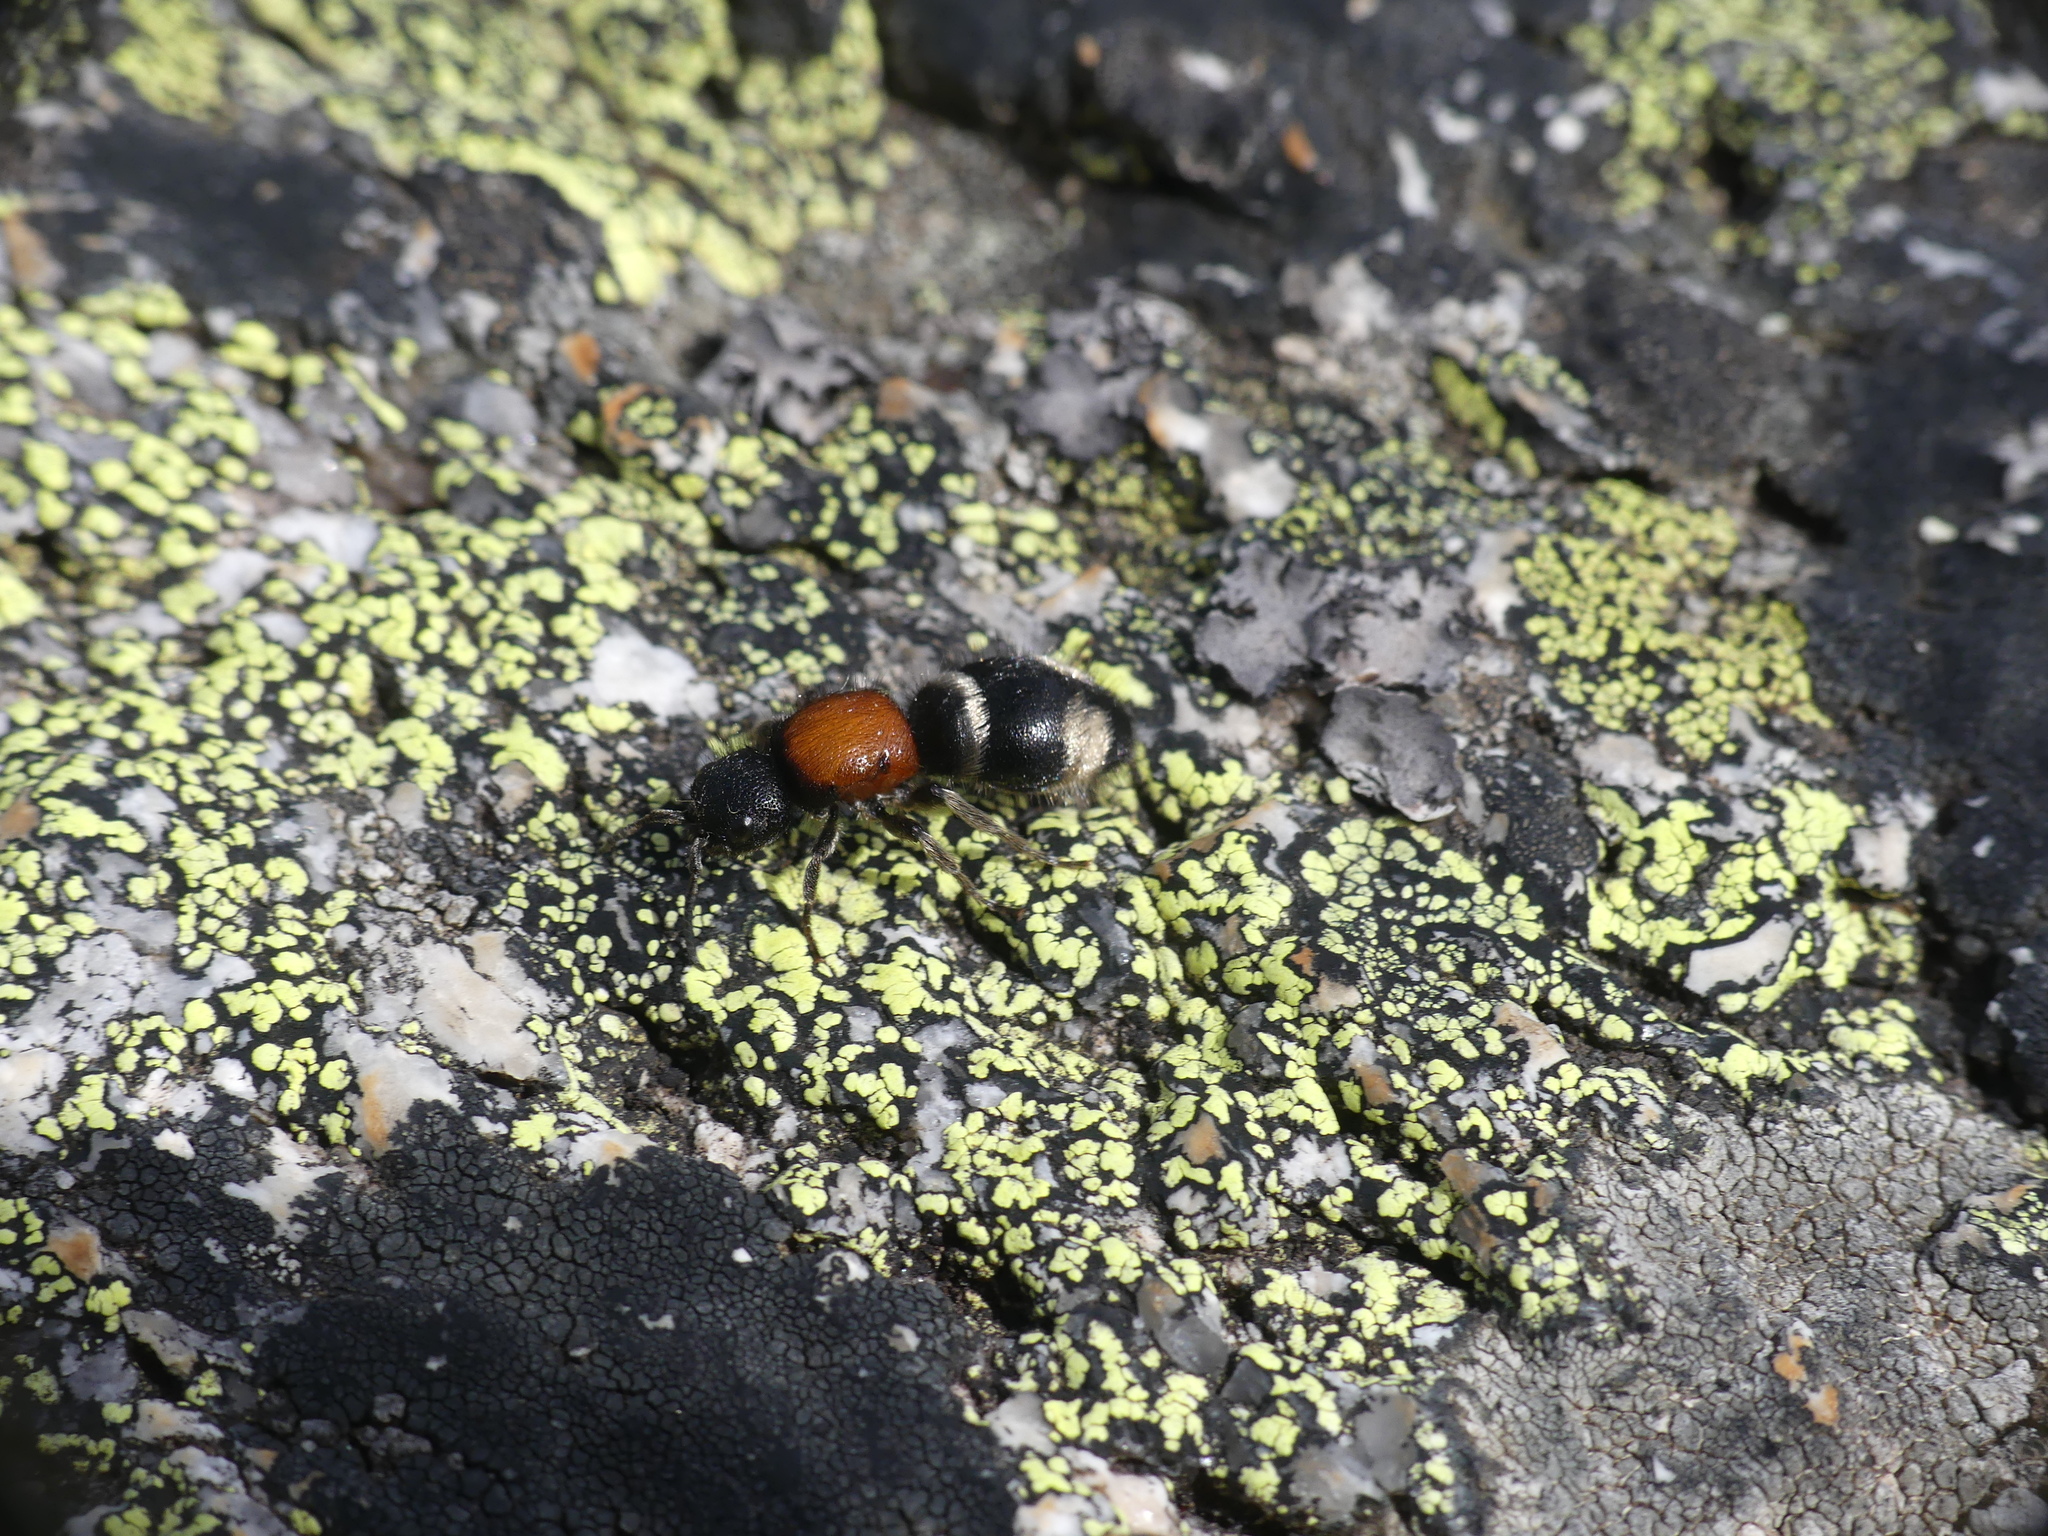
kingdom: Animalia
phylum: Arthropoda
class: Insecta
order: Hymenoptera
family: Mutillidae
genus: Mutilla
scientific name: Mutilla europaea
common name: Large velvet ant
